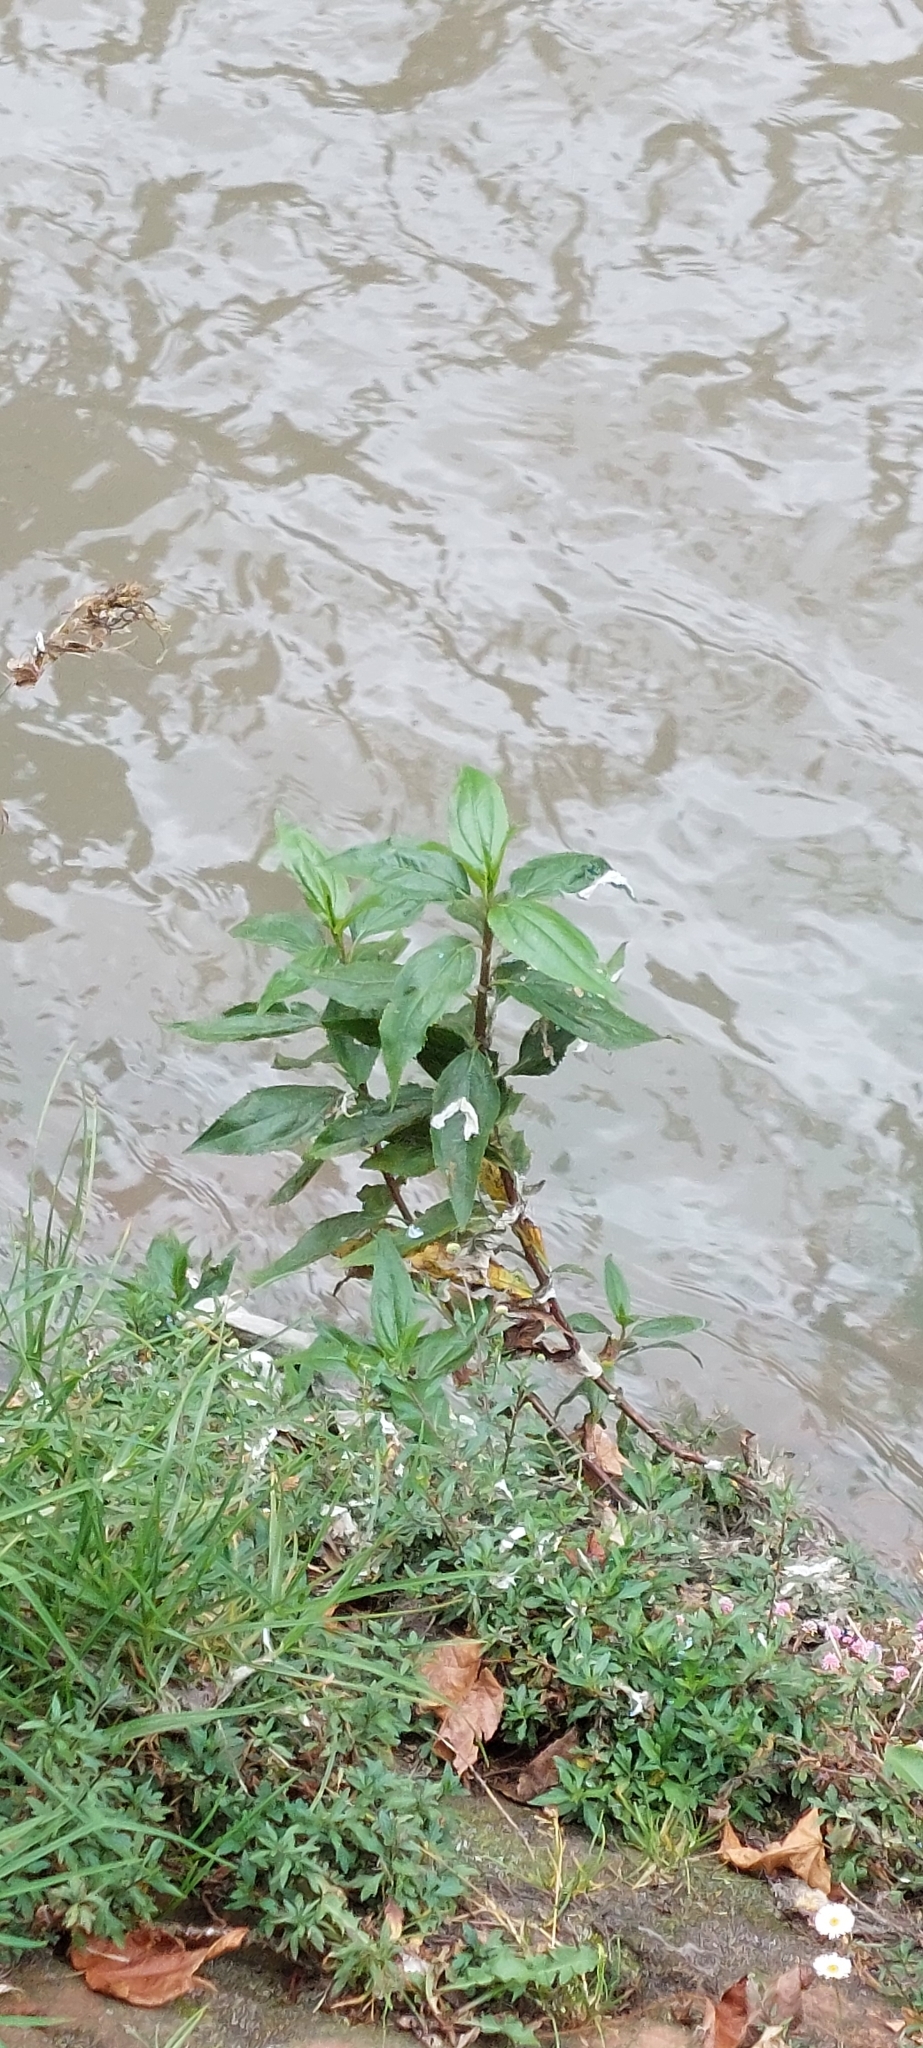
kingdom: Plantae
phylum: Tracheophyta
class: Magnoliopsida
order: Asterales
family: Asteraceae
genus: Baccharis
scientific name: Baccharis latifolia
